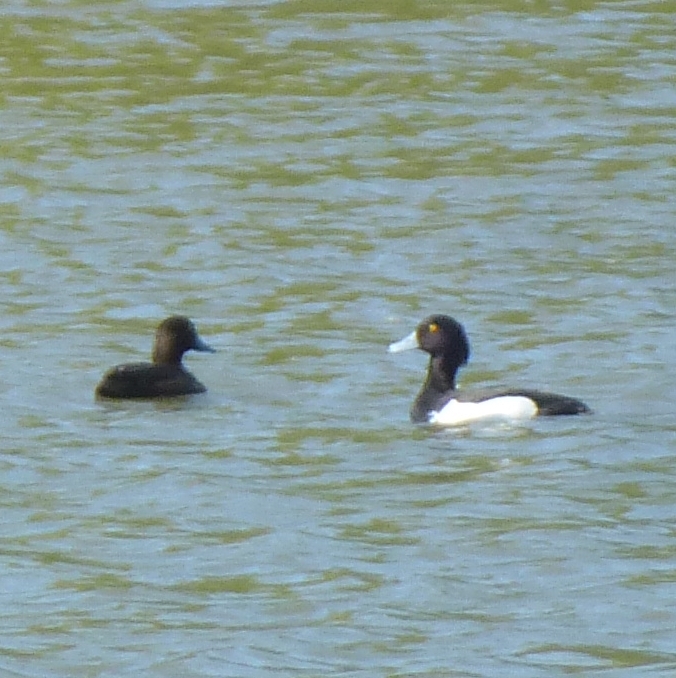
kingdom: Animalia
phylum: Chordata
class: Aves
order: Anseriformes
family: Anatidae
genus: Aythya
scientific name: Aythya fuligula
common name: Tufted duck
